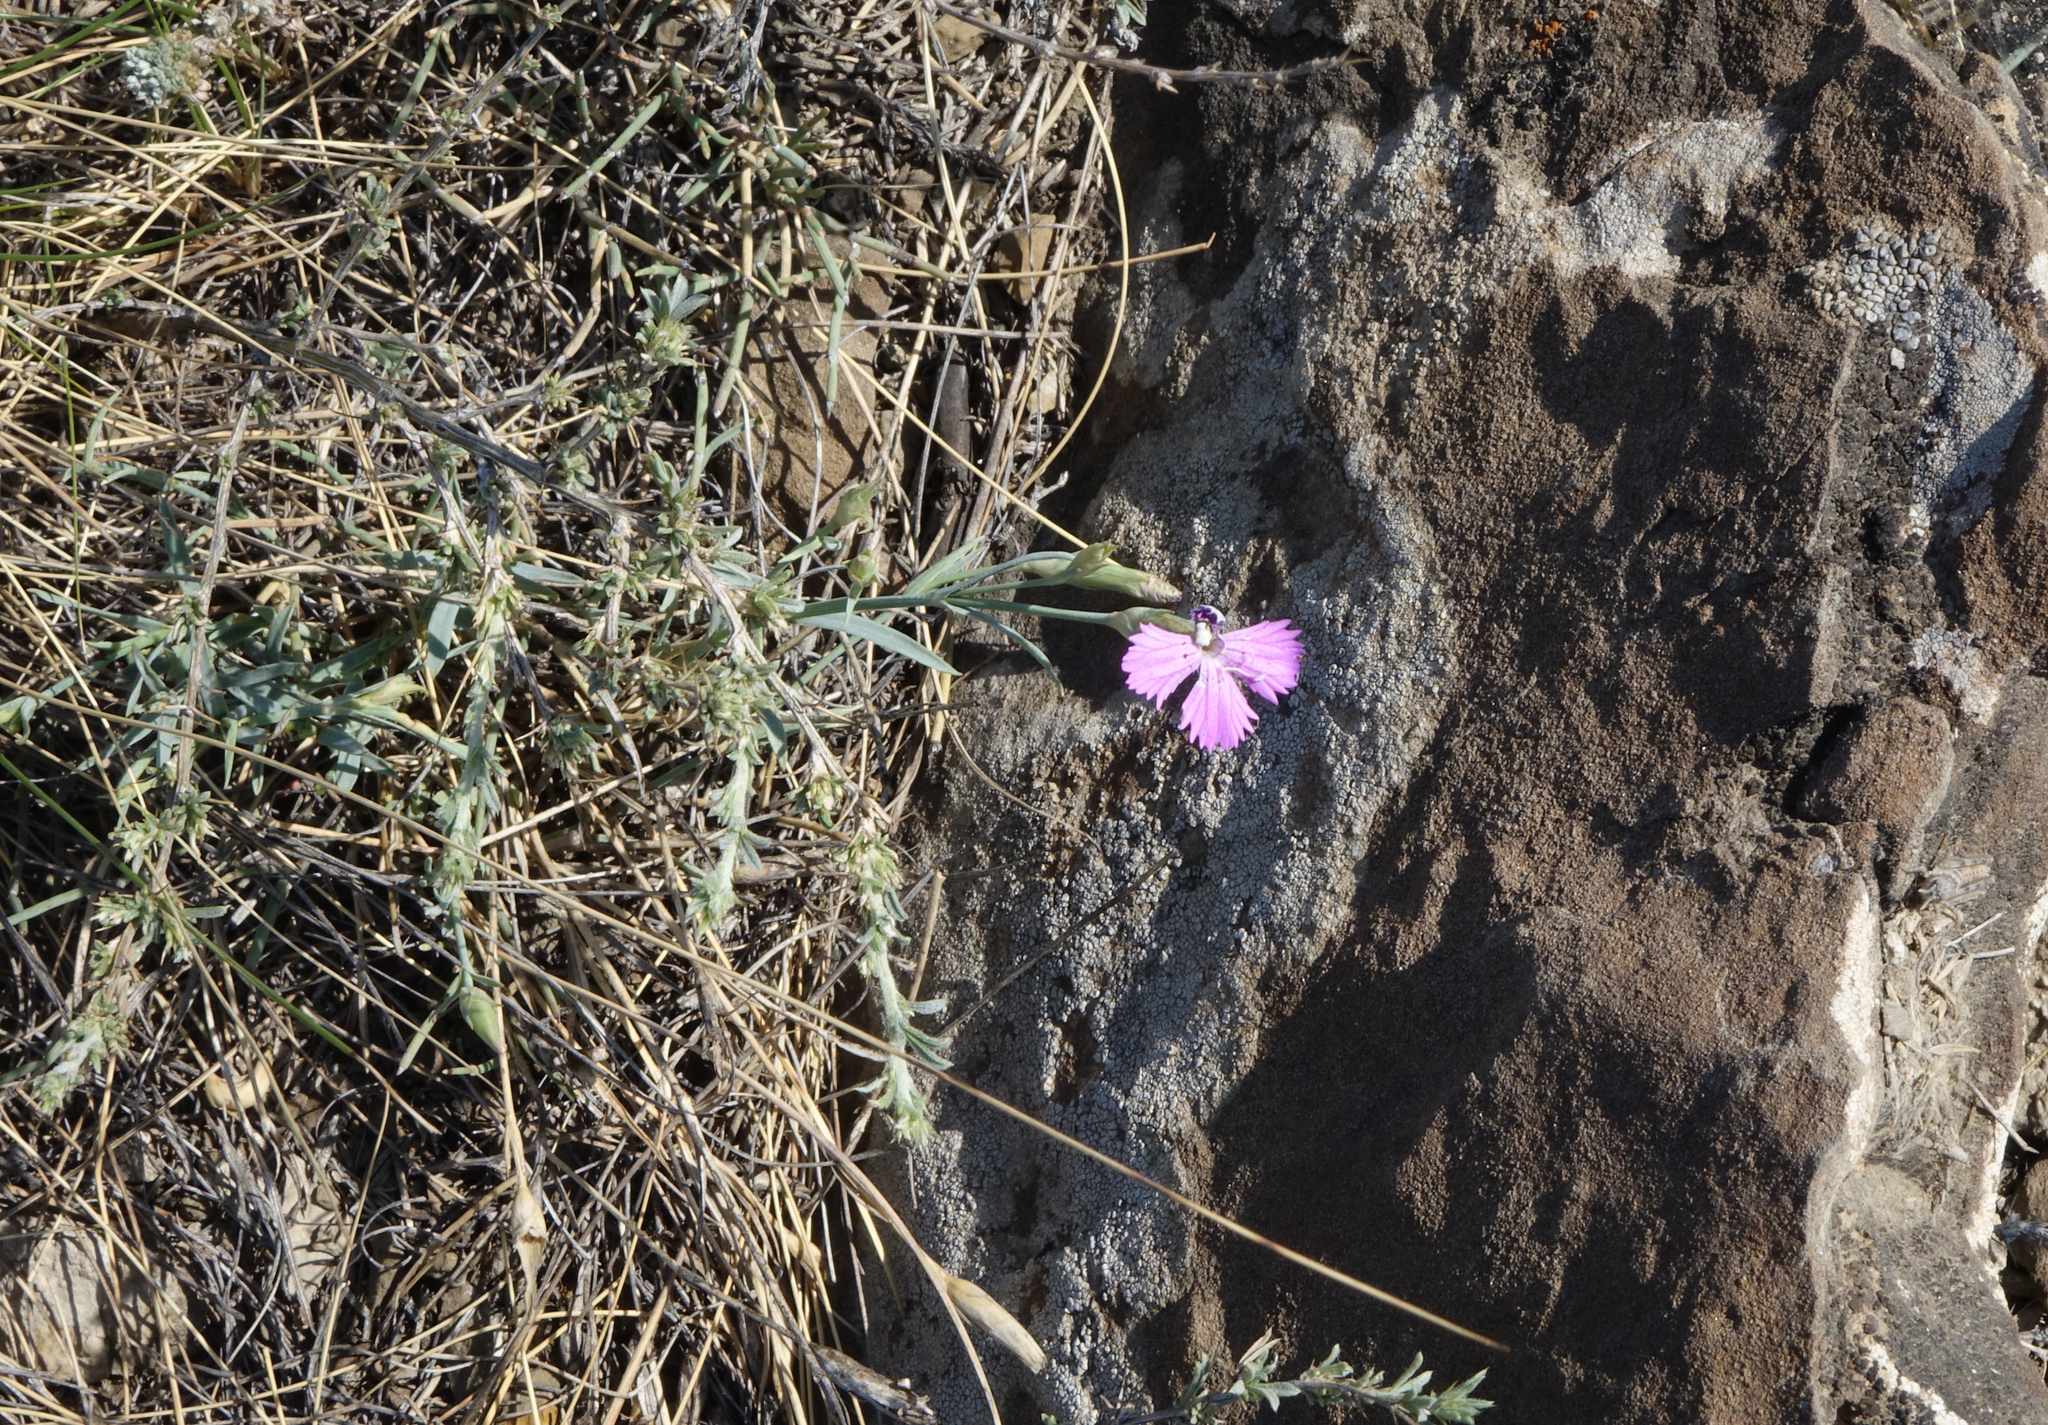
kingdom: Plantae
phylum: Tracheophyta
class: Magnoliopsida
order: Caryophyllales
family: Caryophyllaceae
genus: Dianthus
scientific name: Dianthus chinensis
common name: Rainbow pink
